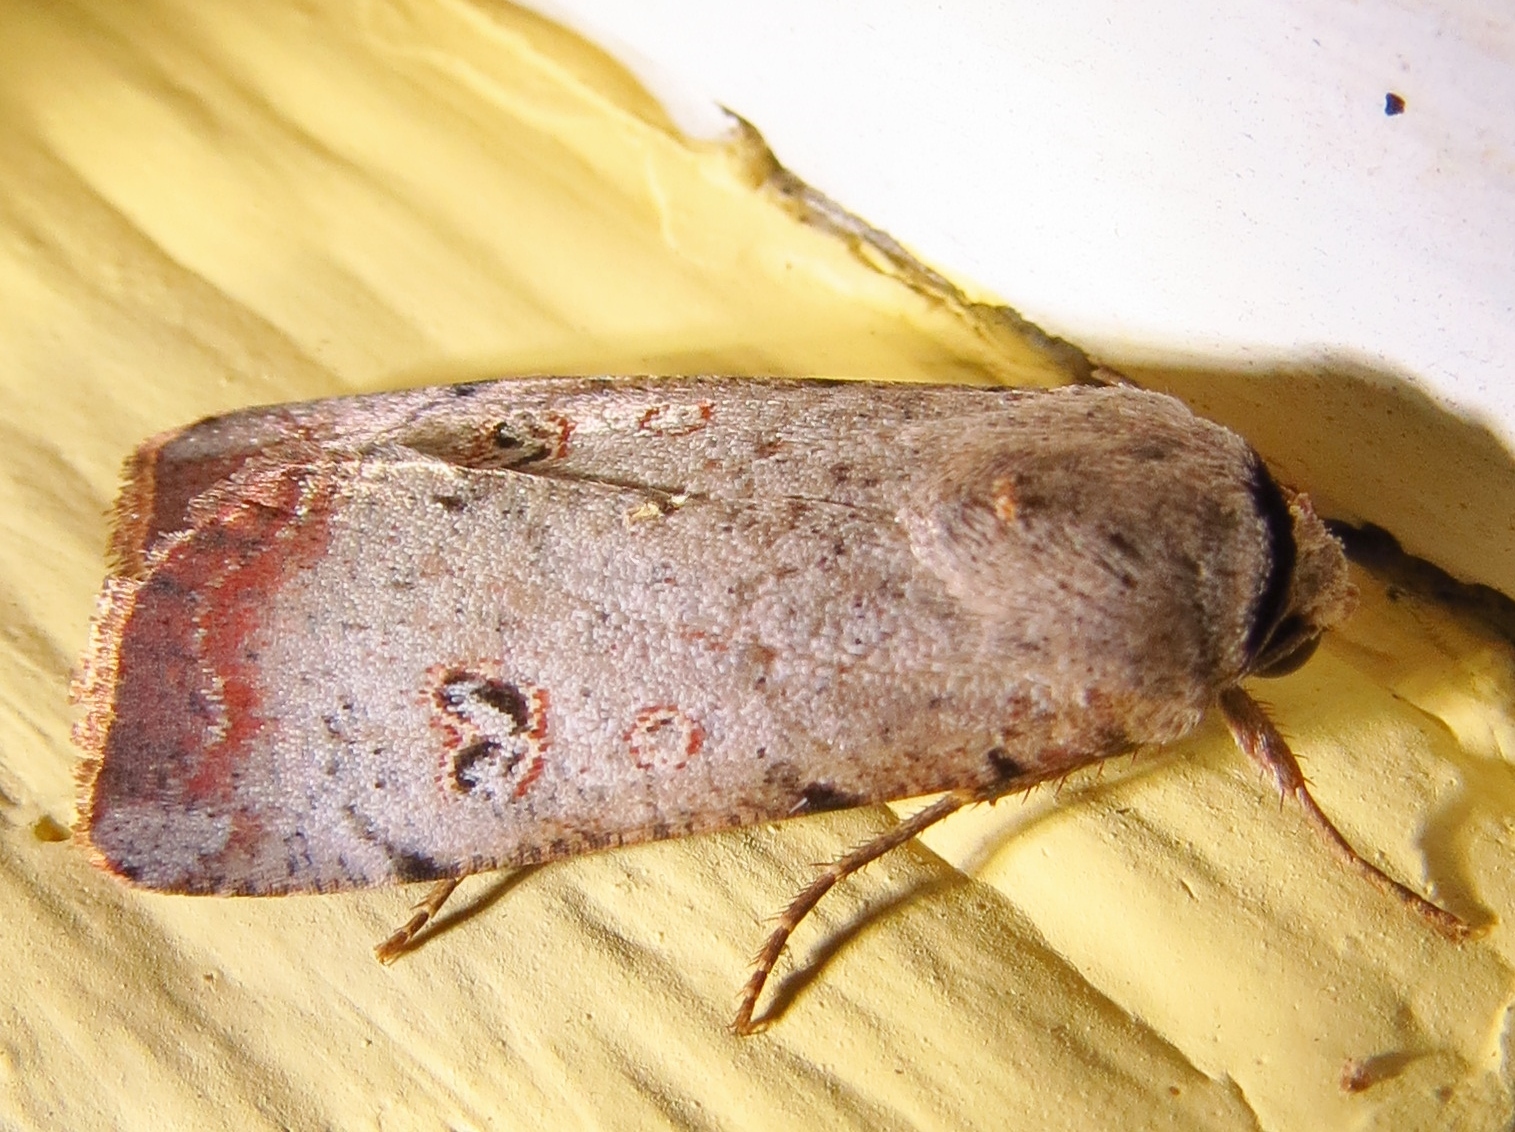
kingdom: Animalia
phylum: Arthropoda
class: Insecta
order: Lepidoptera
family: Noctuidae
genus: Anicla
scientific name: Anicla infecta
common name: Green cutworm
